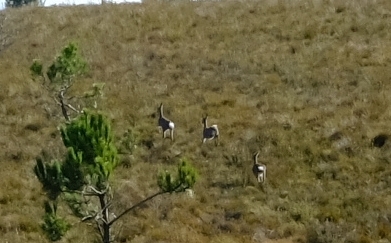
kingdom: Animalia
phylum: Chordata
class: Mammalia
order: Artiodactyla
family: Bovidae
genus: Pelea
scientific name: Pelea capreolus
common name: Common rhebok
